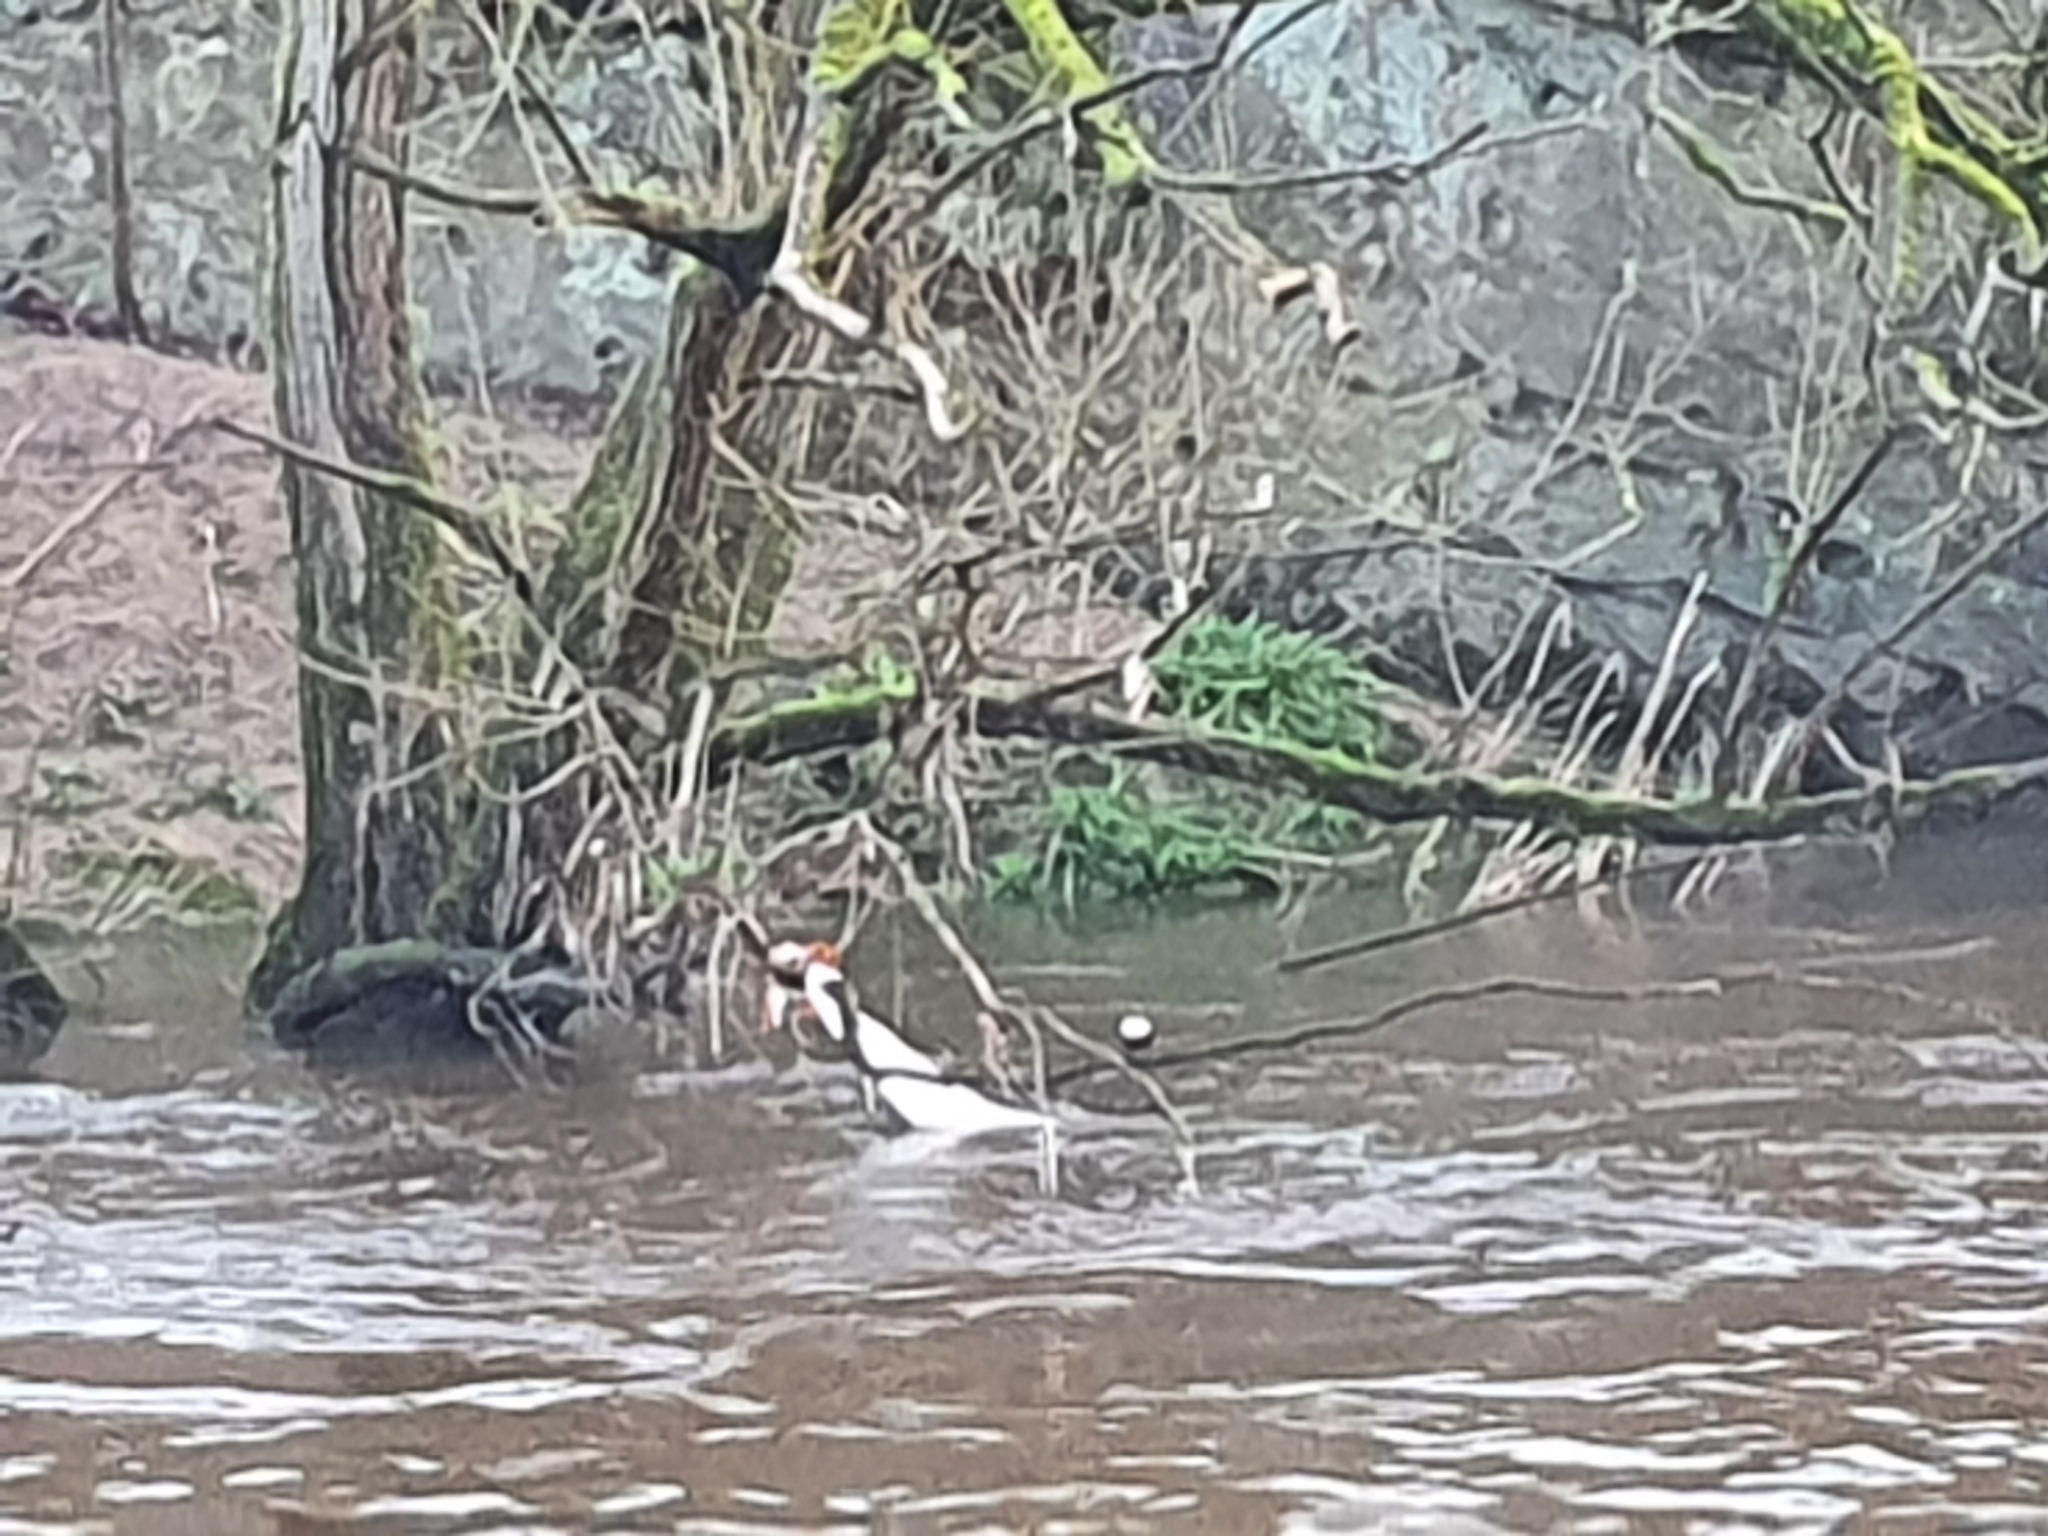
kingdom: Animalia
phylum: Chordata
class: Aves
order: Passeriformes
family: Cinclidae
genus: Cinclus
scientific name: Cinclus cinclus
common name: White-throated dipper
